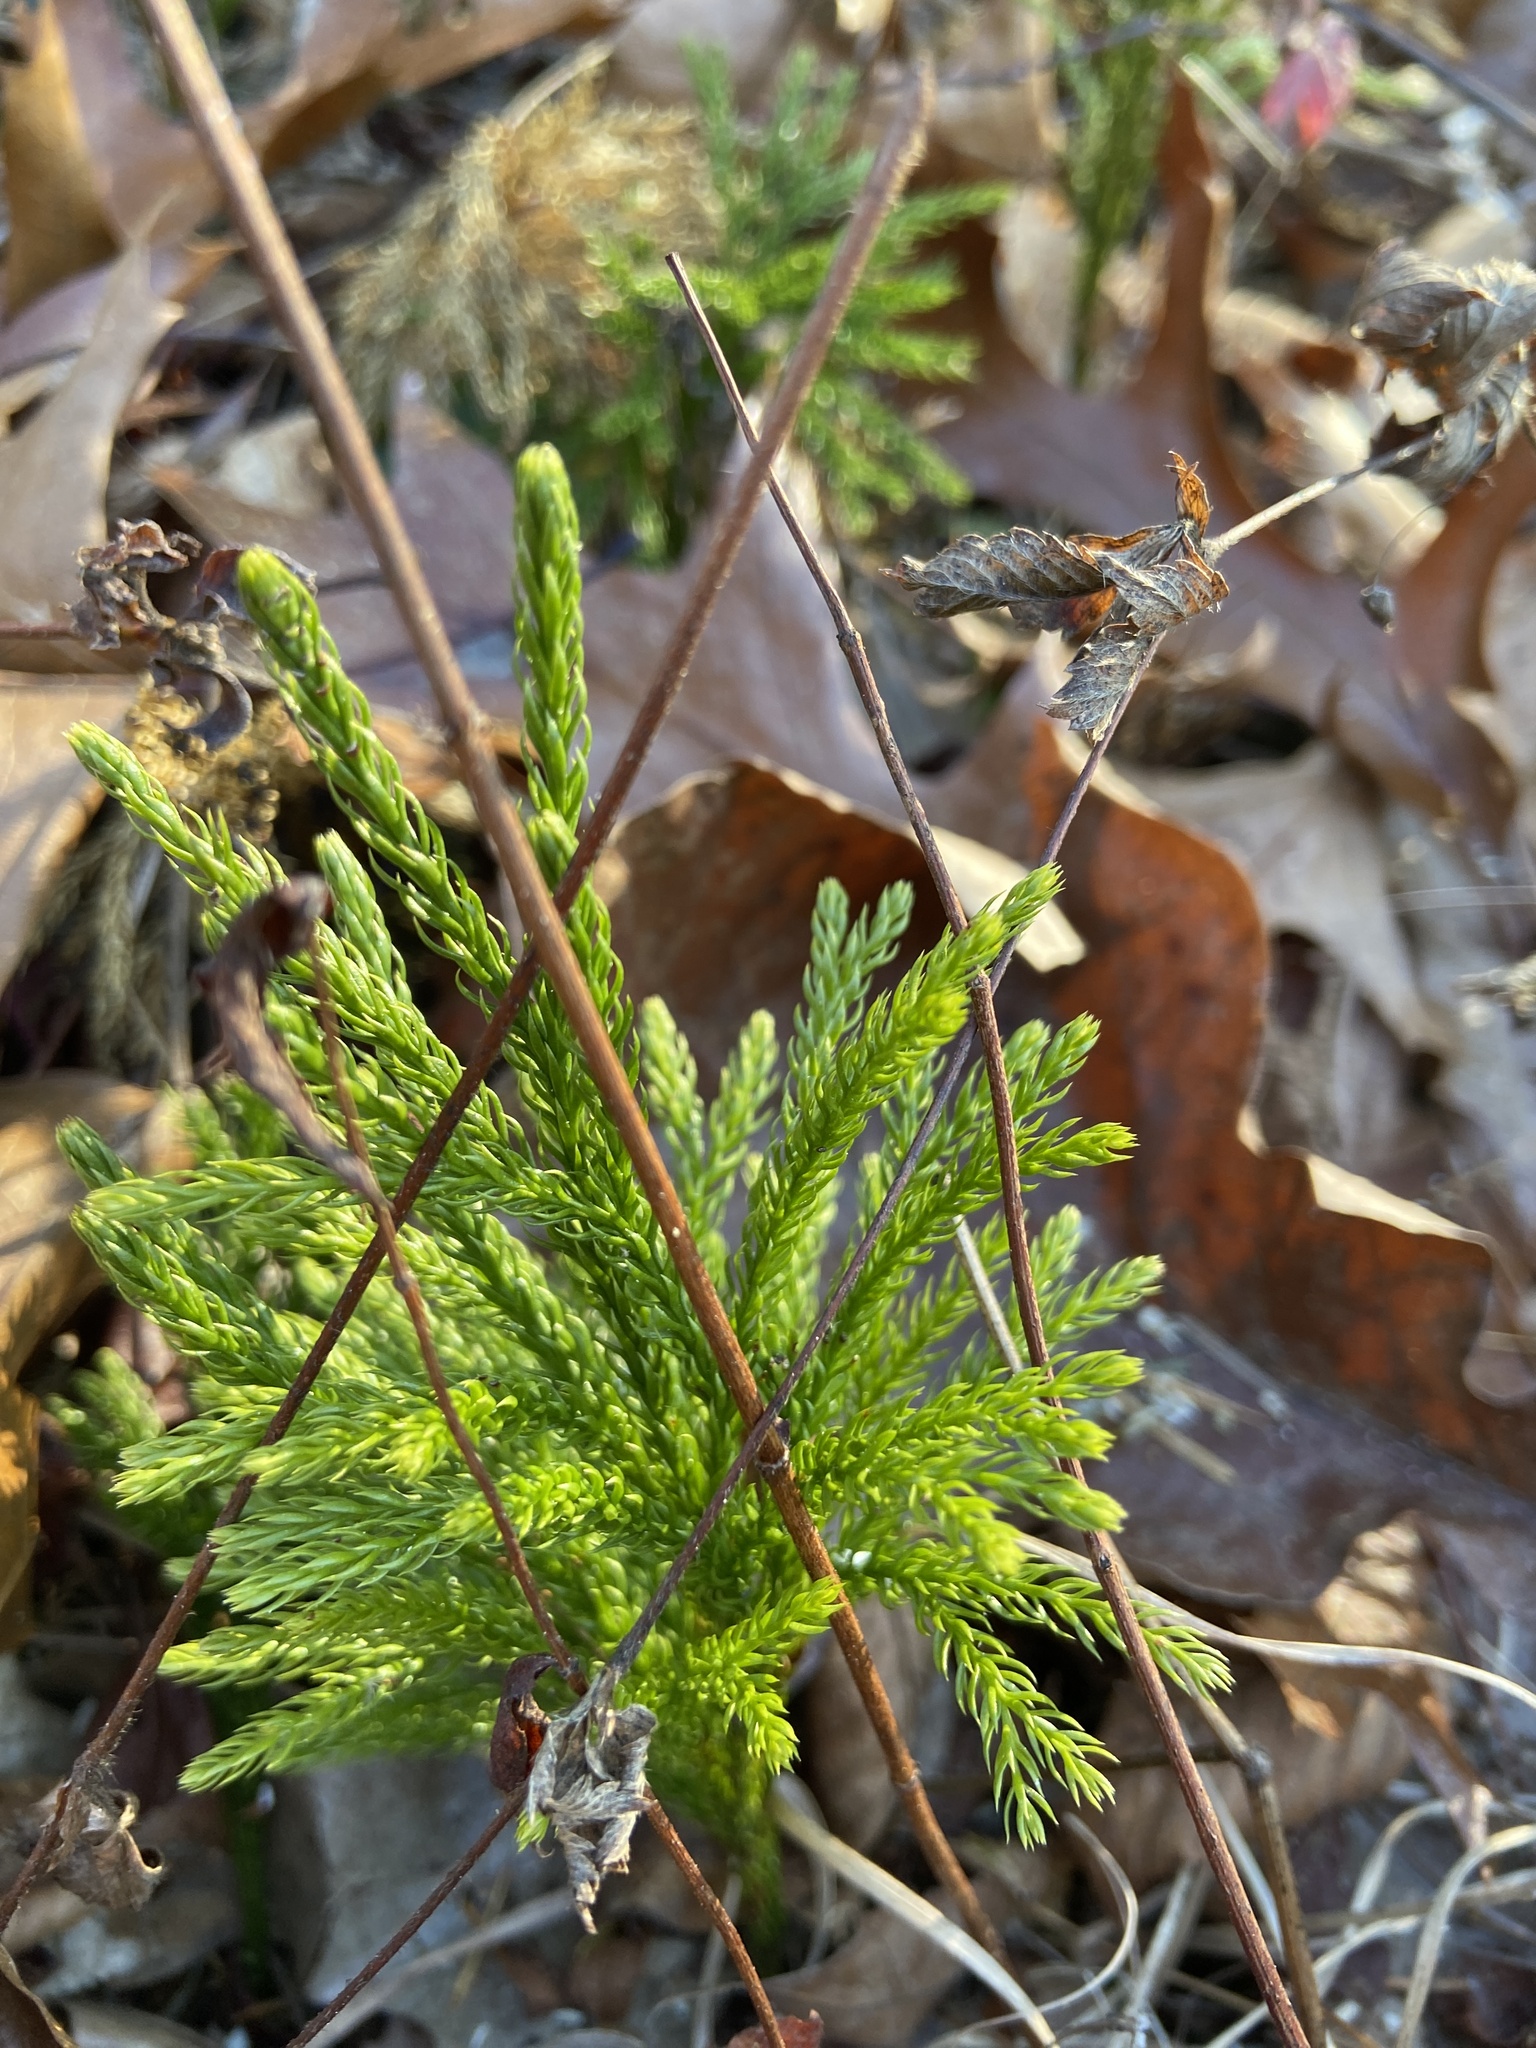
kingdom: Plantae
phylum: Tracheophyta
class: Lycopodiopsida
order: Lycopodiales
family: Lycopodiaceae
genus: Dendrolycopodium
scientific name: Dendrolycopodium hickeyi
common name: Hickey's clubmoss
